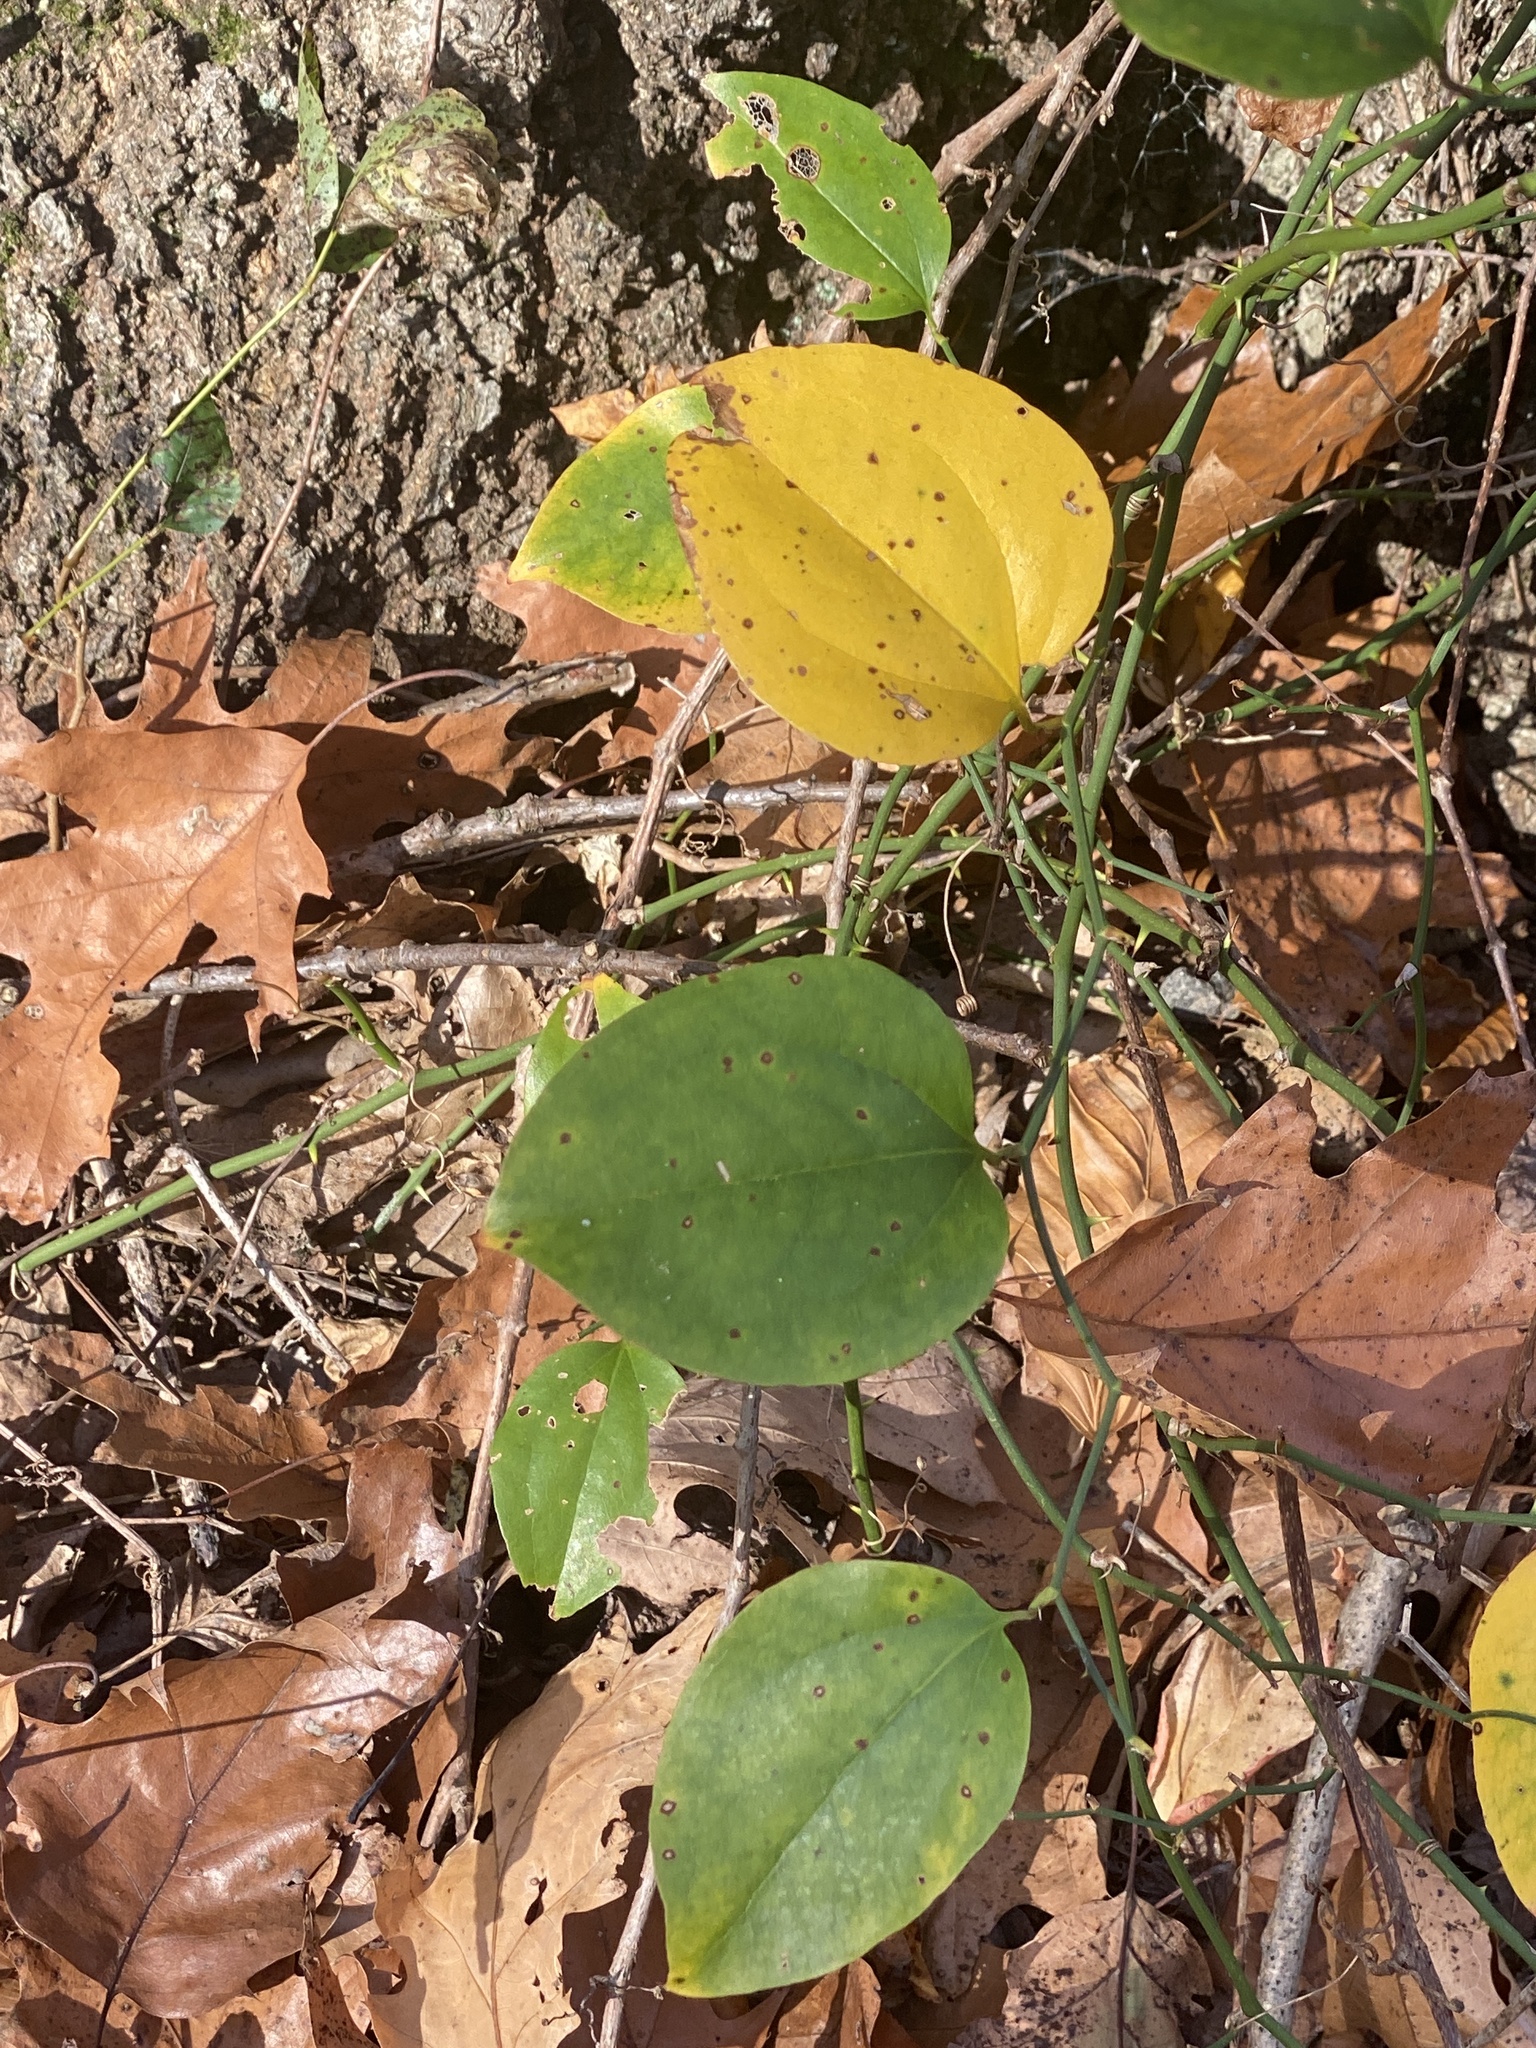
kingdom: Plantae
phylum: Tracheophyta
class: Liliopsida
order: Liliales
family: Smilacaceae
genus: Smilax
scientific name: Smilax rotundifolia
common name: Bullbriar
